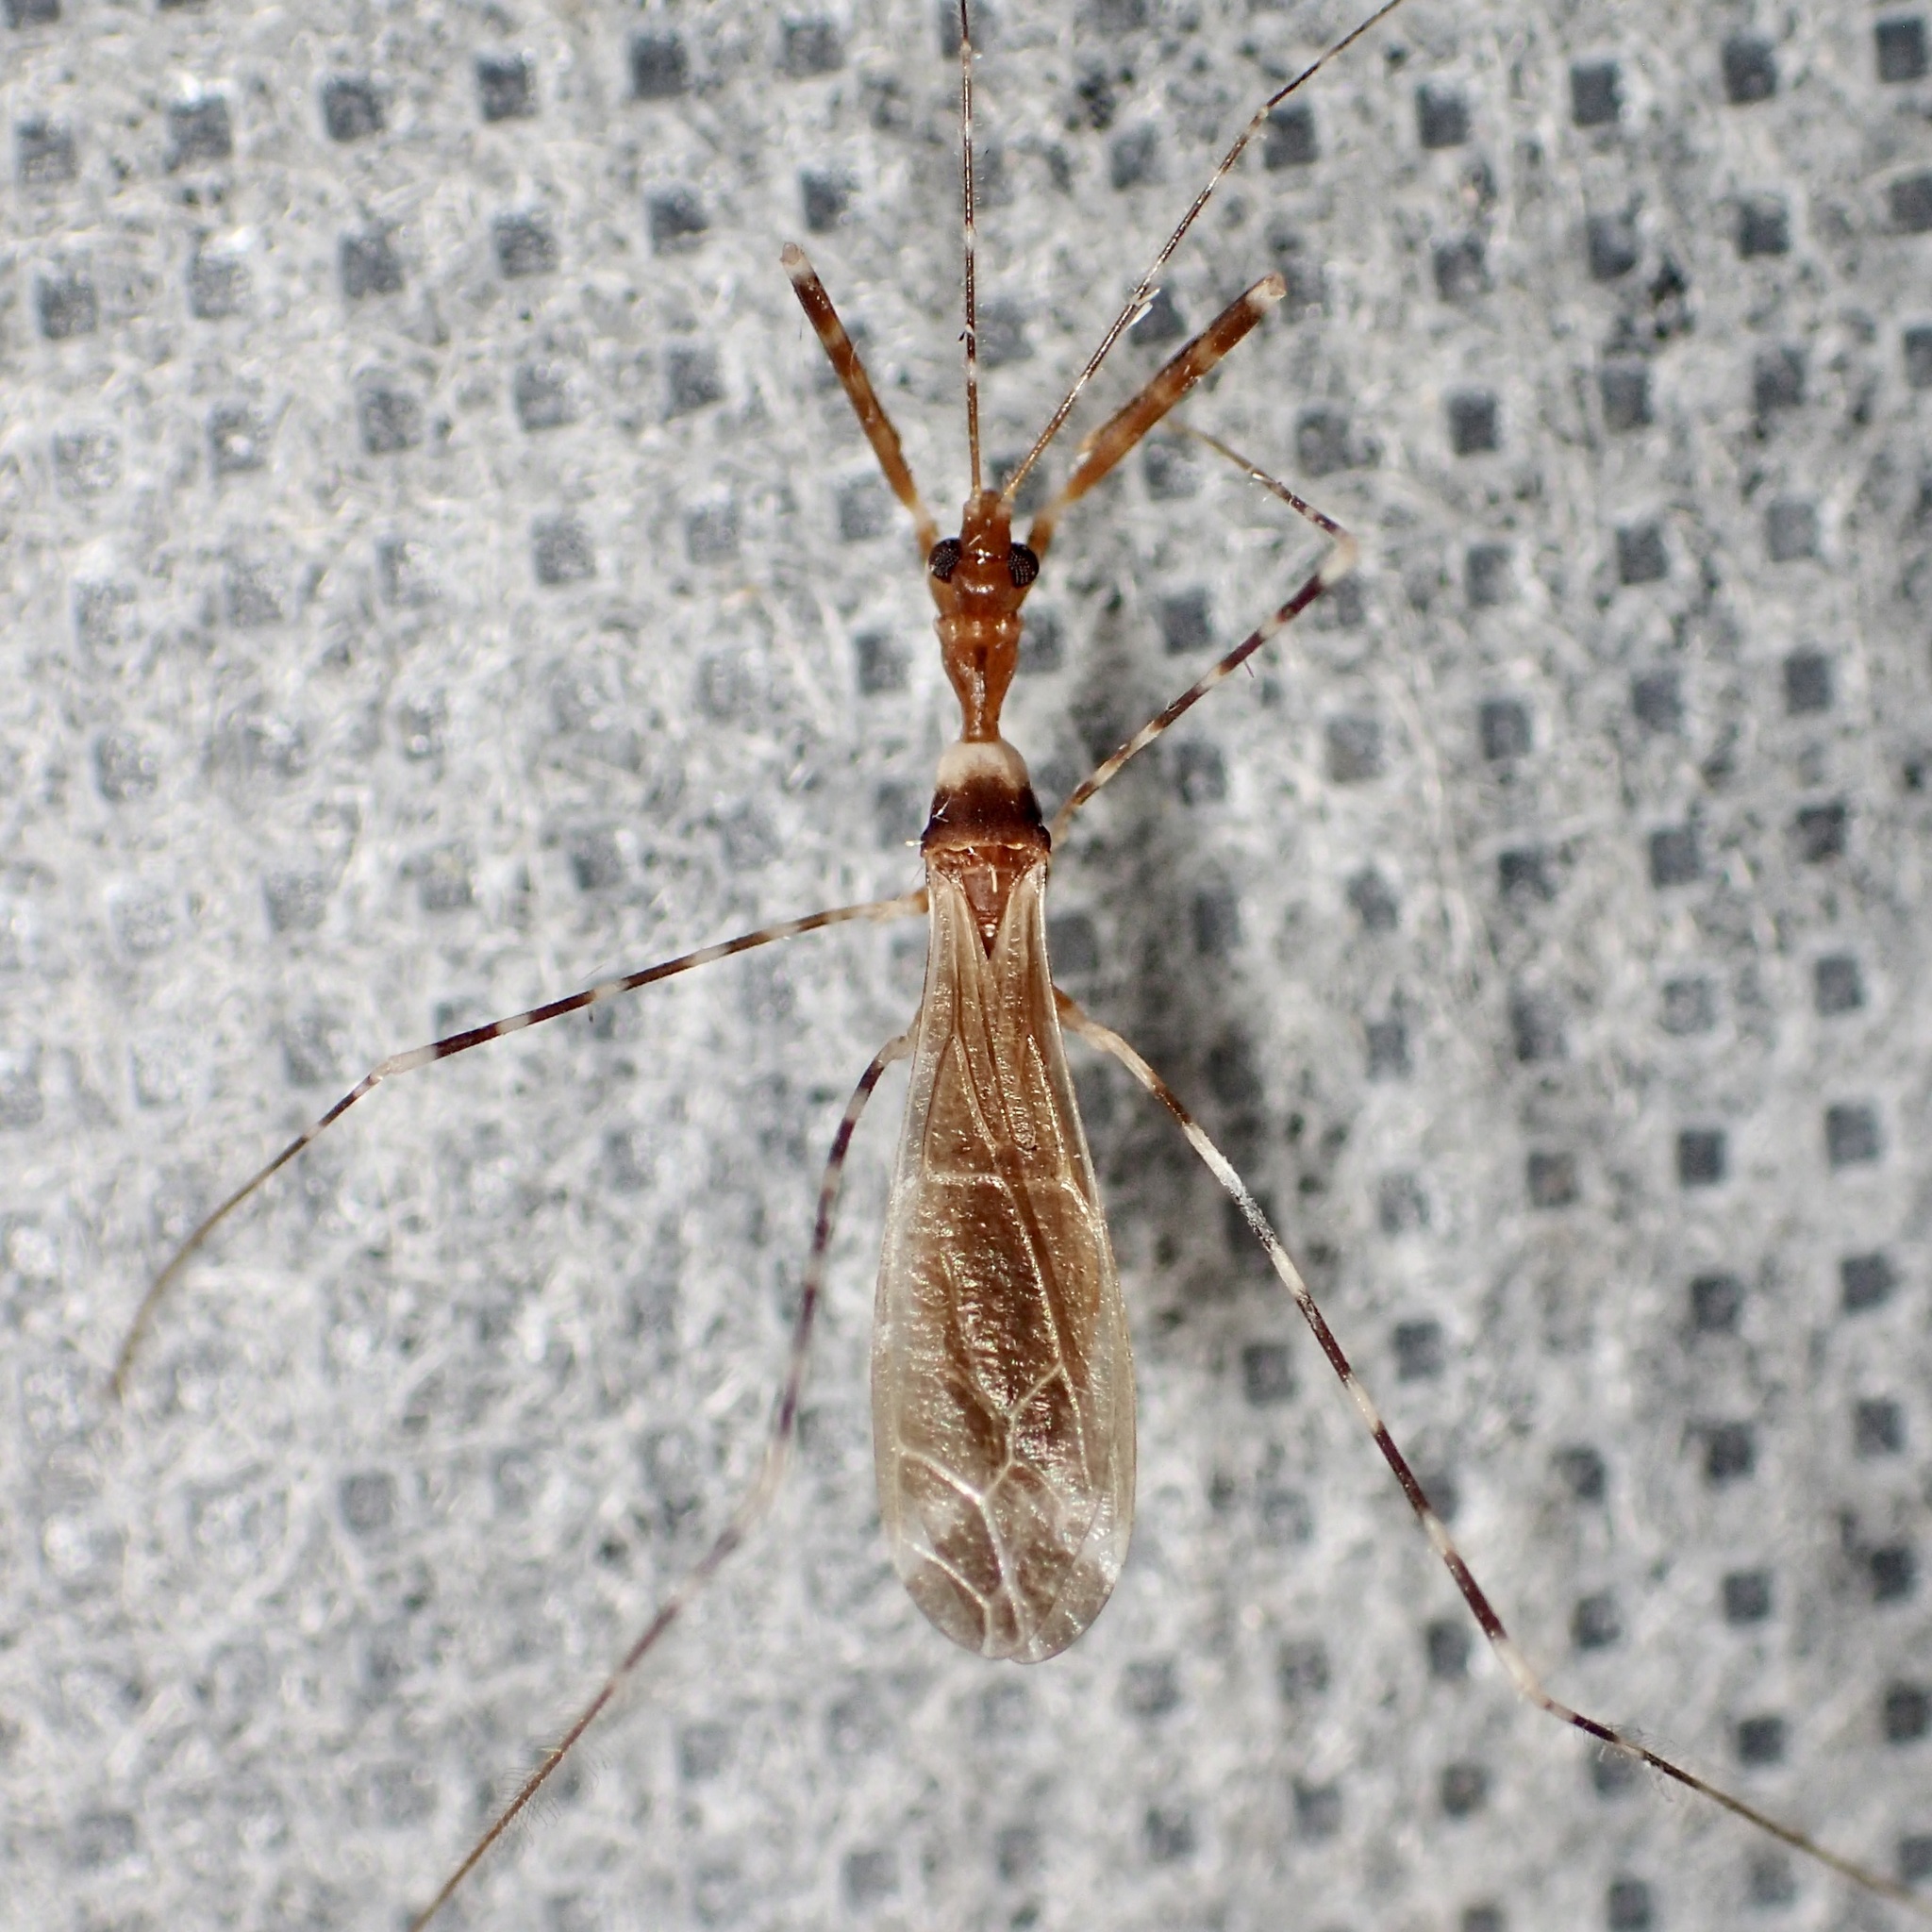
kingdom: Animalia
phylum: Arthropoda
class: Insecta
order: Hemiptera
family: Reduviidae
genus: Stenolemoides
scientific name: Stenolemoides arizonensis
